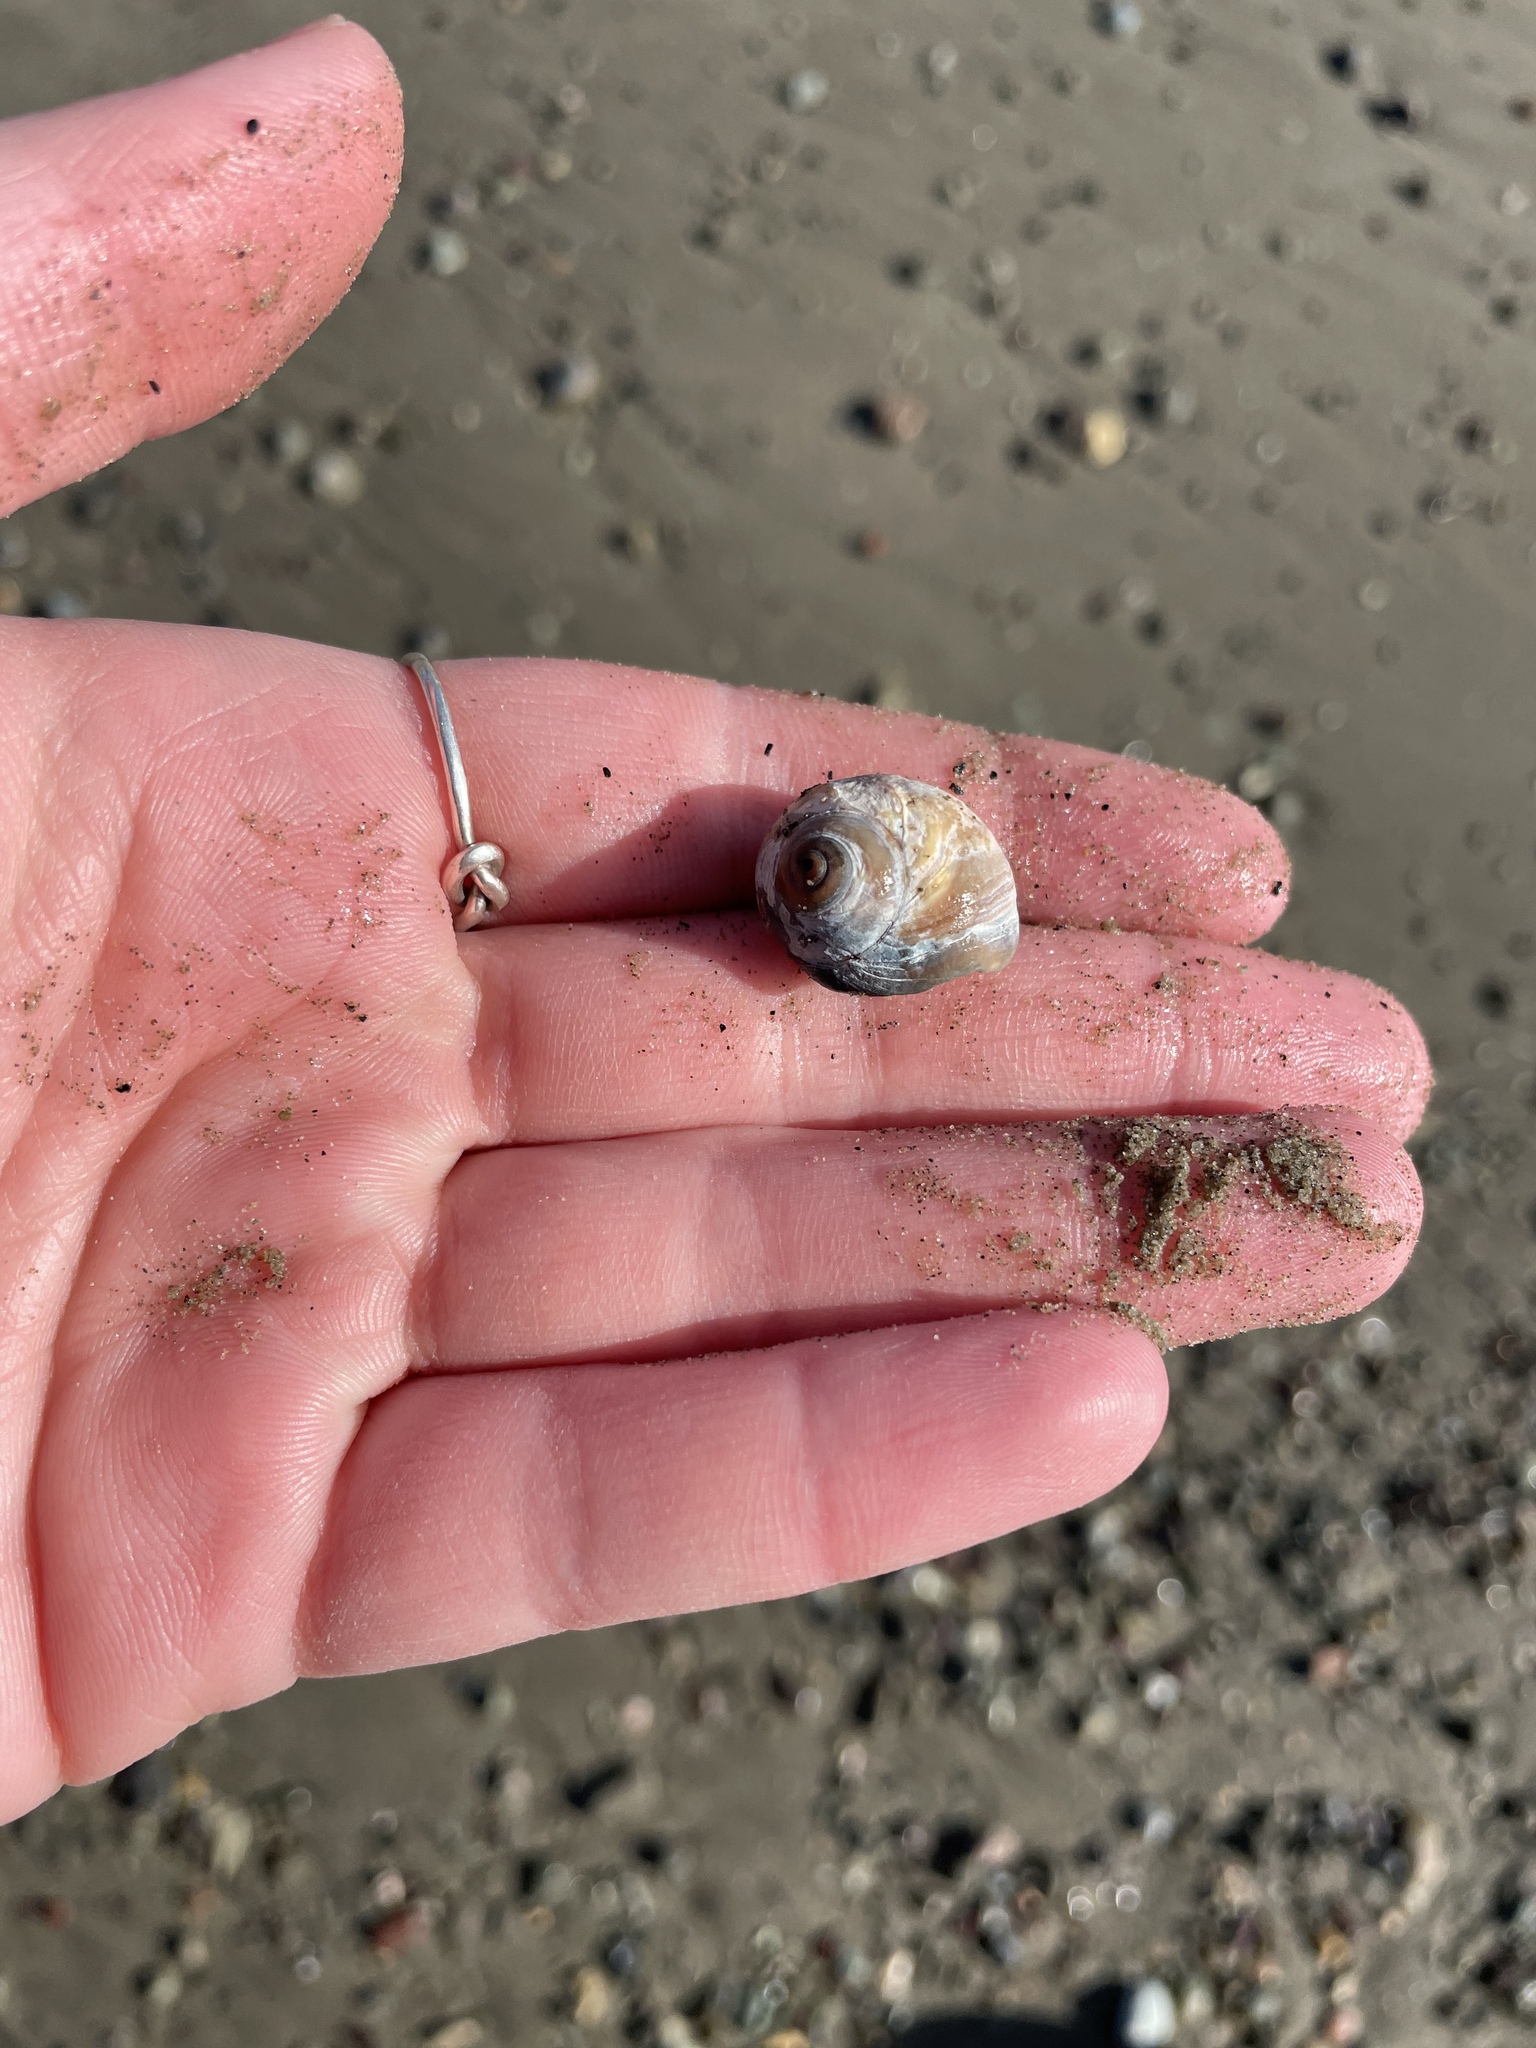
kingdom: Animalia
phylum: Mollusca
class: Gastropoda
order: Littorinimorpha
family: Naticidae
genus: Euspira
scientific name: Euspira heros
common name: Common northern moonsnail
